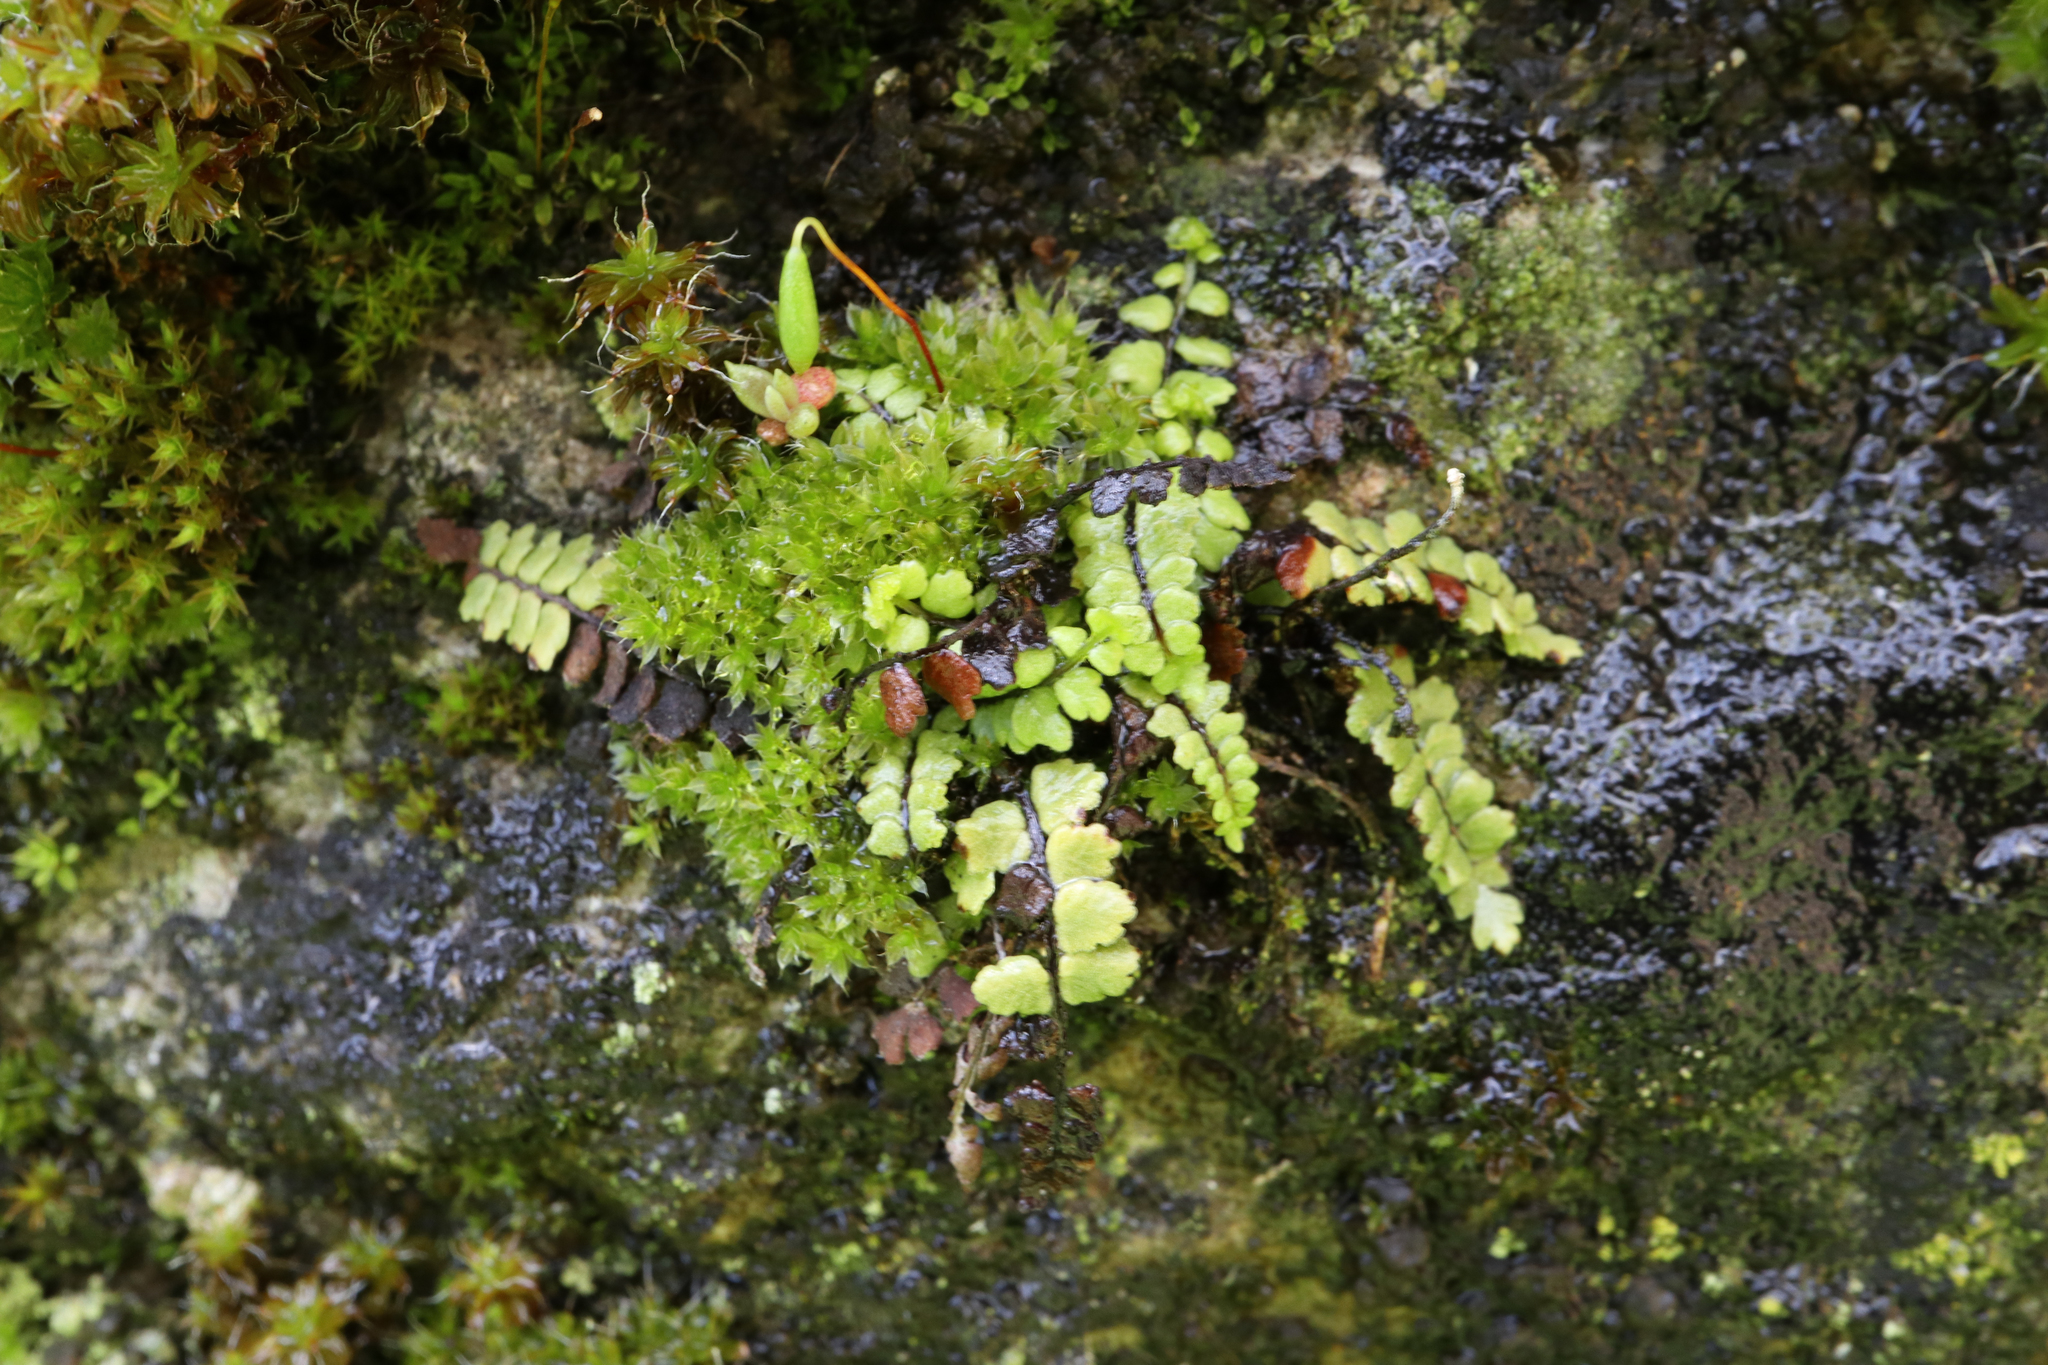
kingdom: Plantae
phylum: Tracheophyta
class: Polypodiopsida
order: Polypodiales
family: Aspleniaceae
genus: Asplenium
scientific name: Asplenium trichomanes
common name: Maidenhair spleenwort
